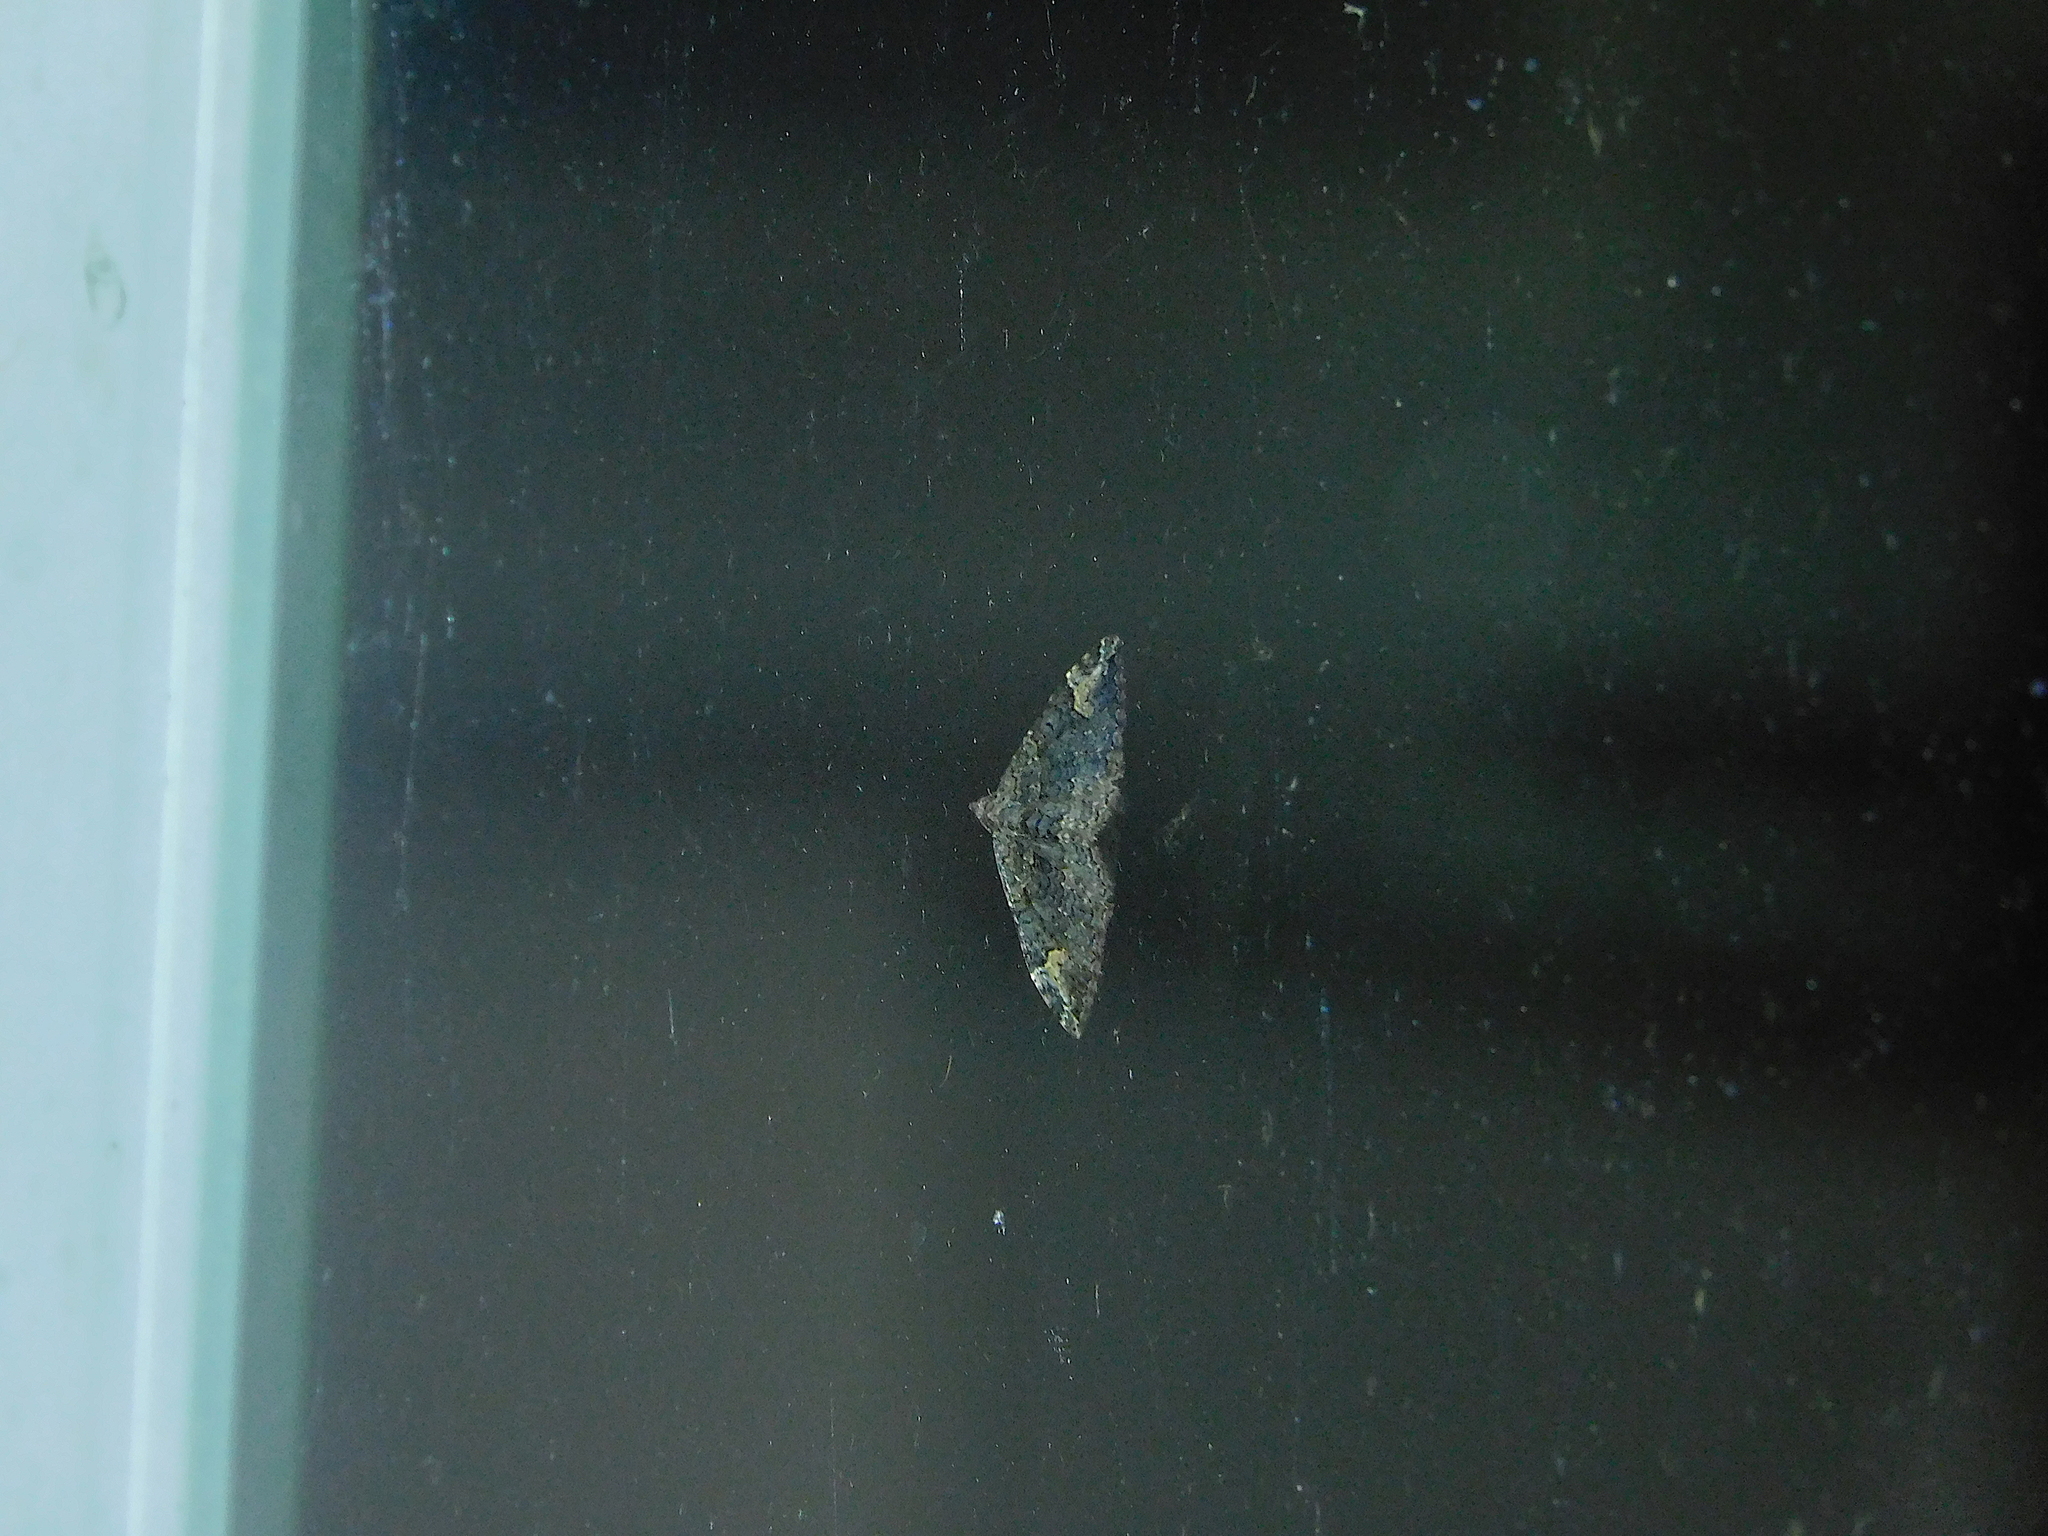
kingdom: Animalia
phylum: Arthropoda
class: Insecta
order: Lepidoptera
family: Geometridae
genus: Epyaxa
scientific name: Epyaxa sodaliata
